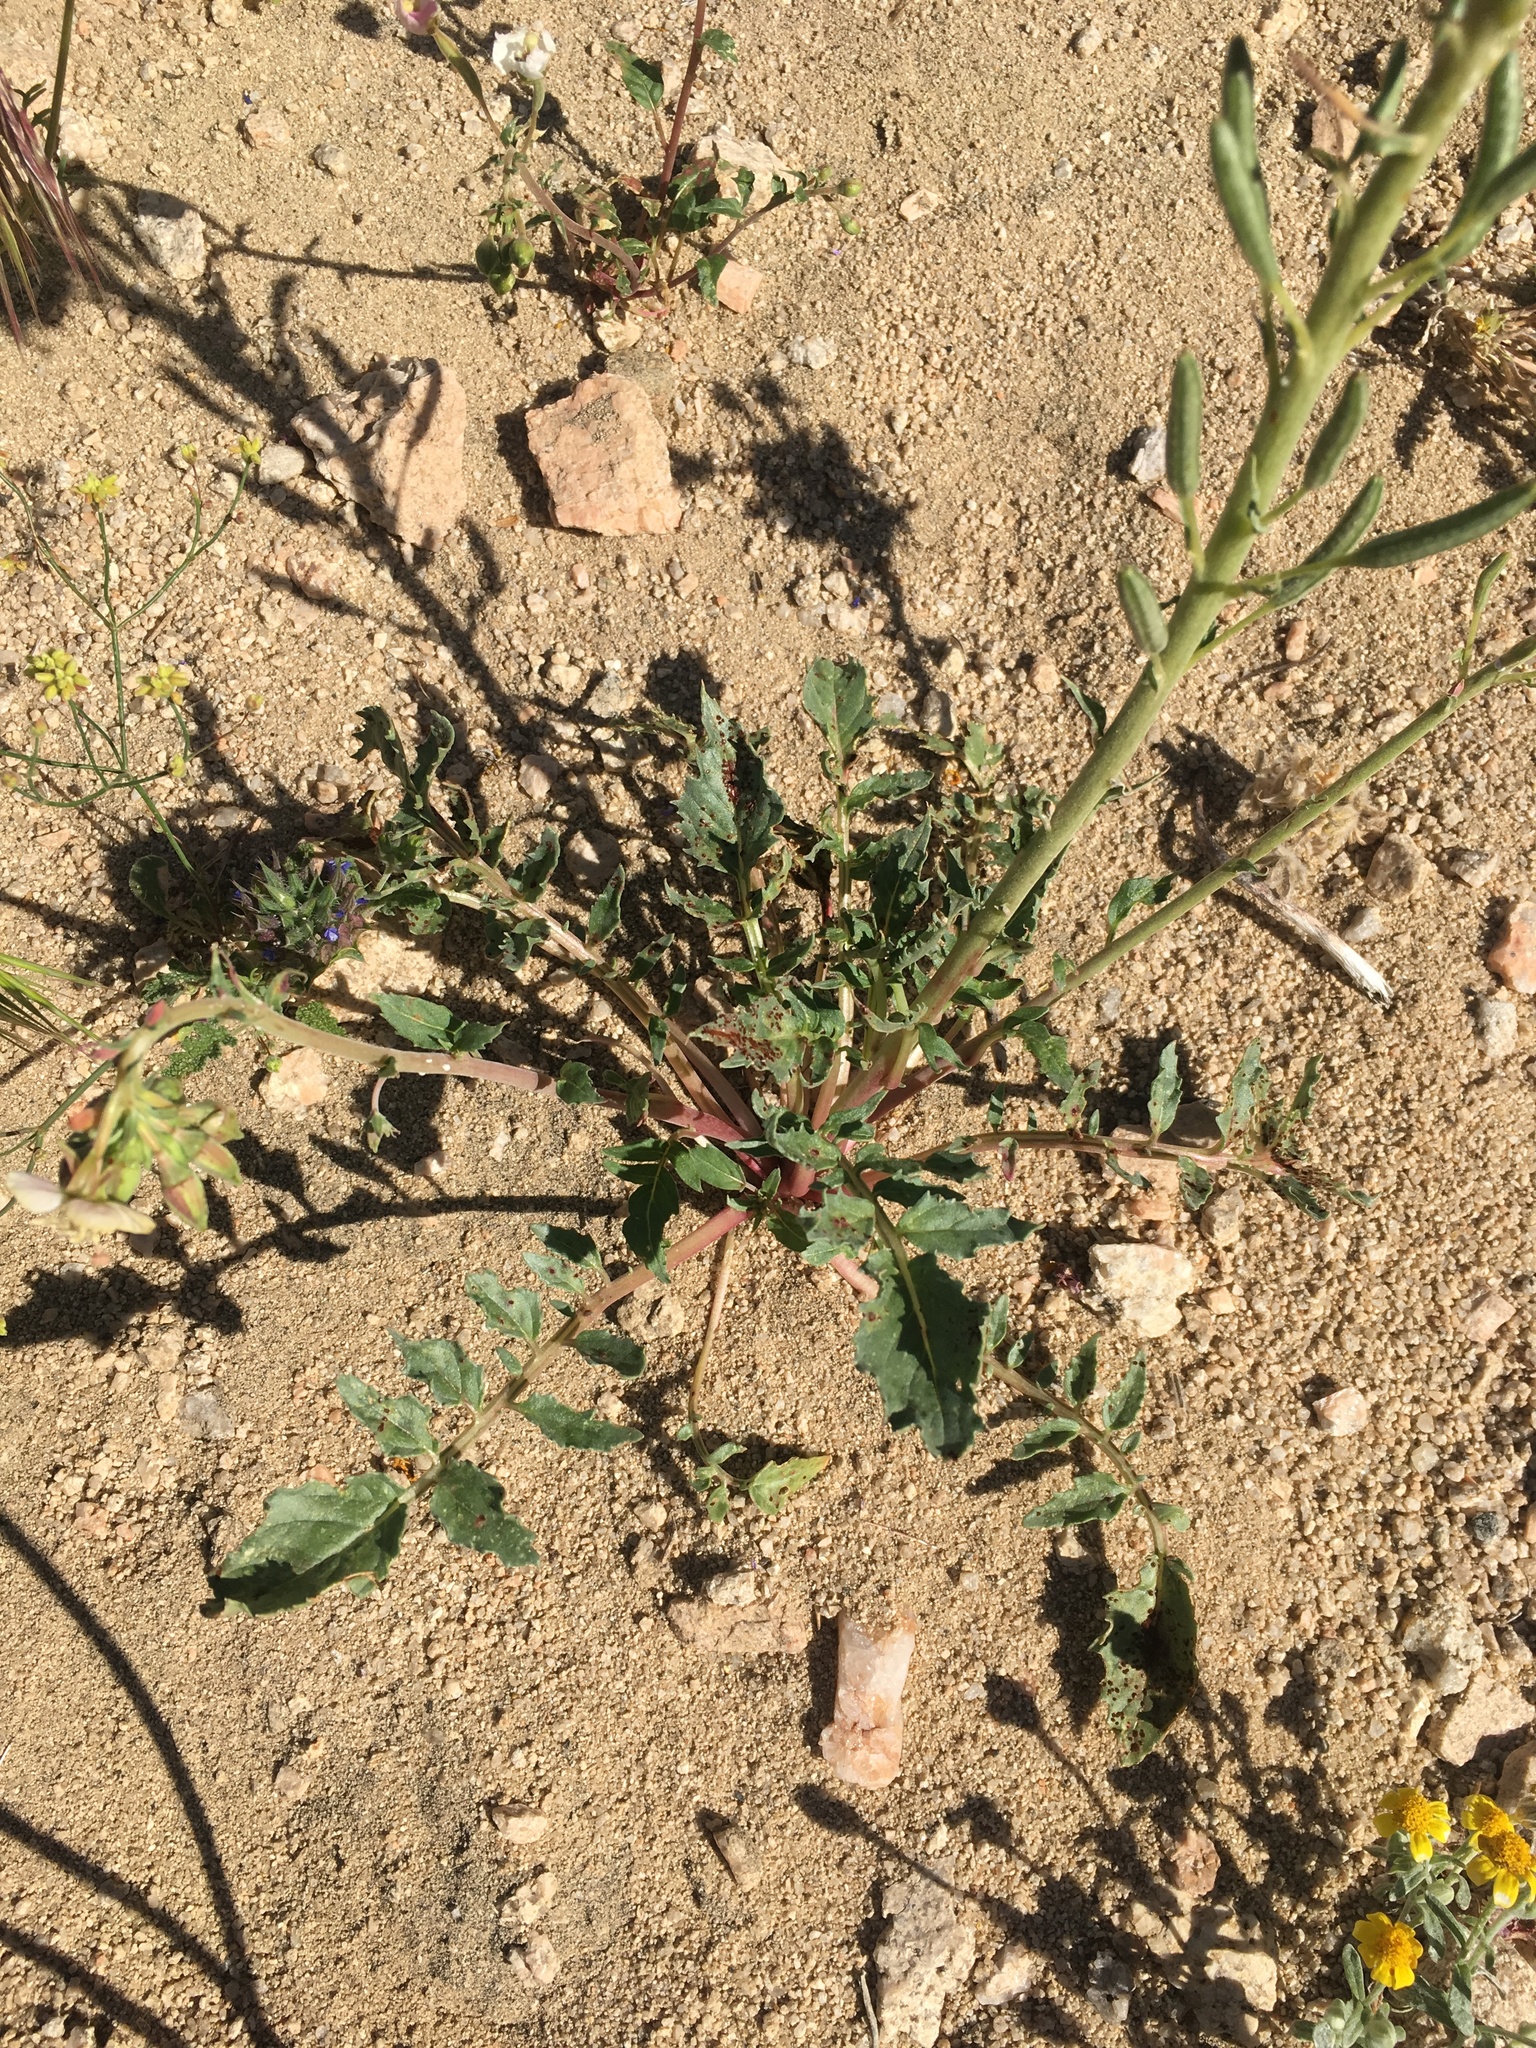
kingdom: Plantae
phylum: Tracheophyta
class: Magnoliopsida
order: Myrtales
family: Onagraceae
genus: Chylismia
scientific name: Chylismia claviformis
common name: Browneyes
